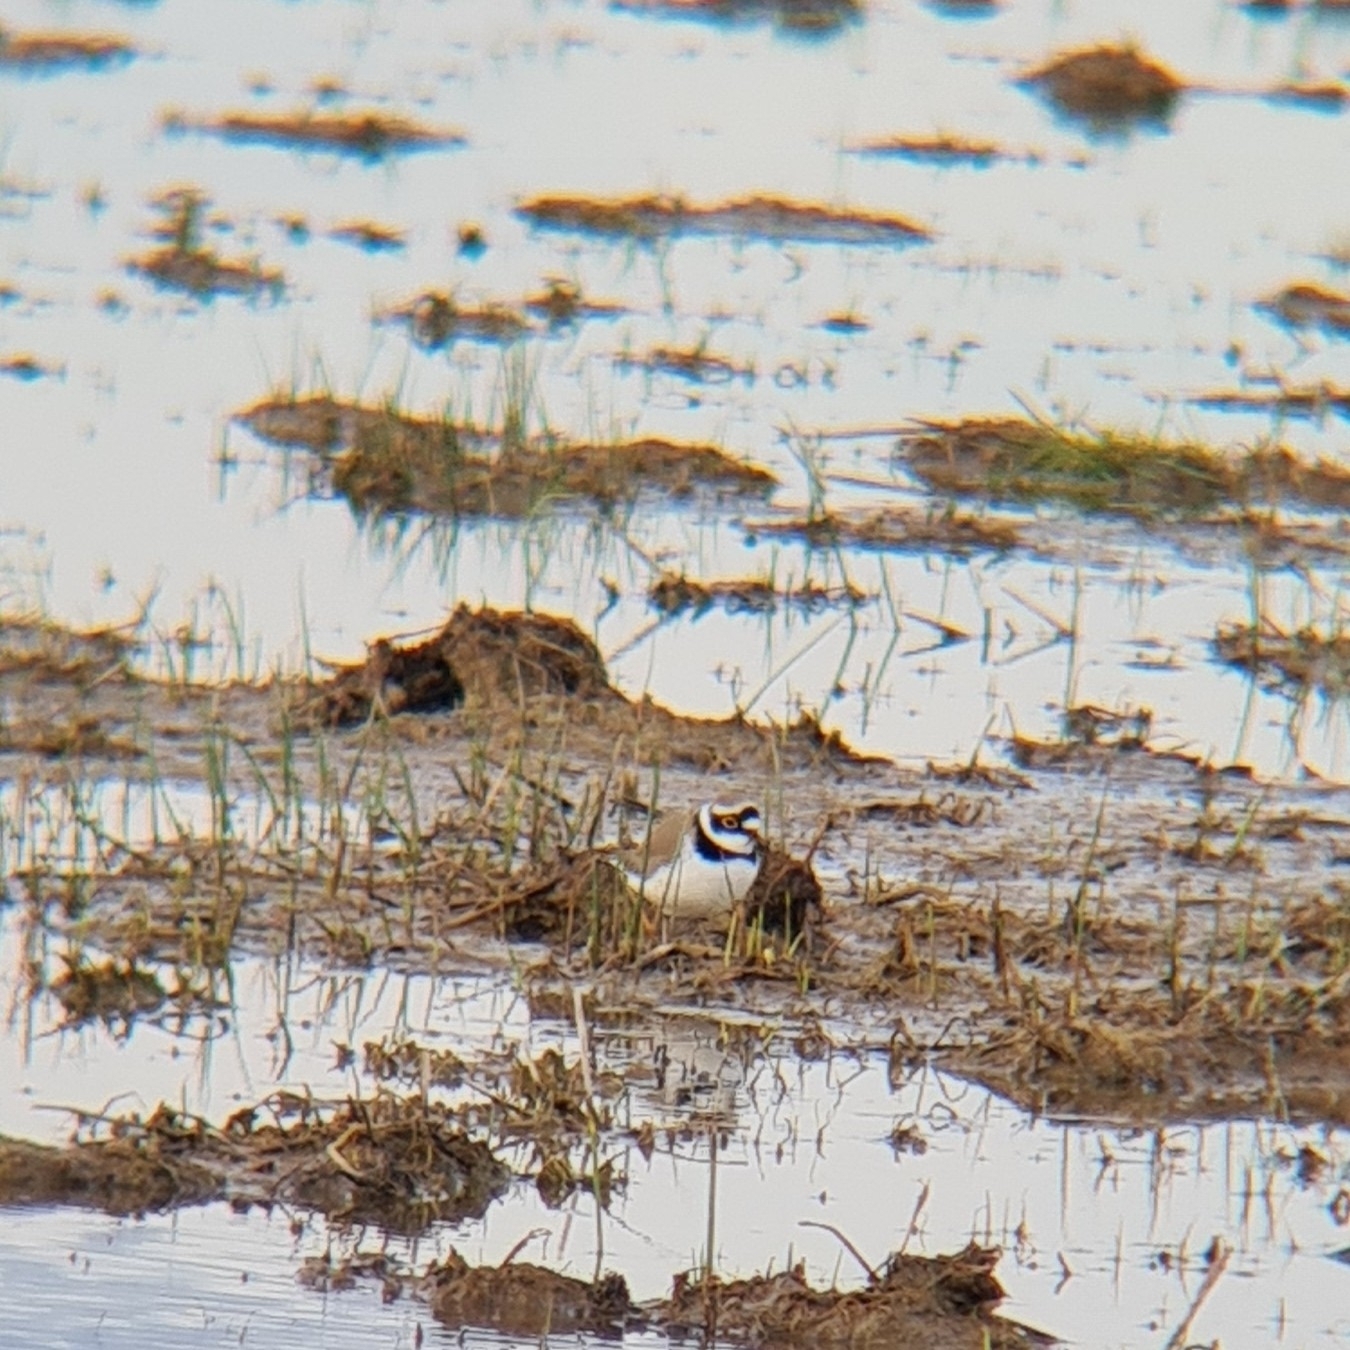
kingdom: Animalia
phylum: Chordata
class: Aves
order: Charadriiformes
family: Charadriidae
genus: Charadrius
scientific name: Charadrius dubius
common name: Little ringed plover
